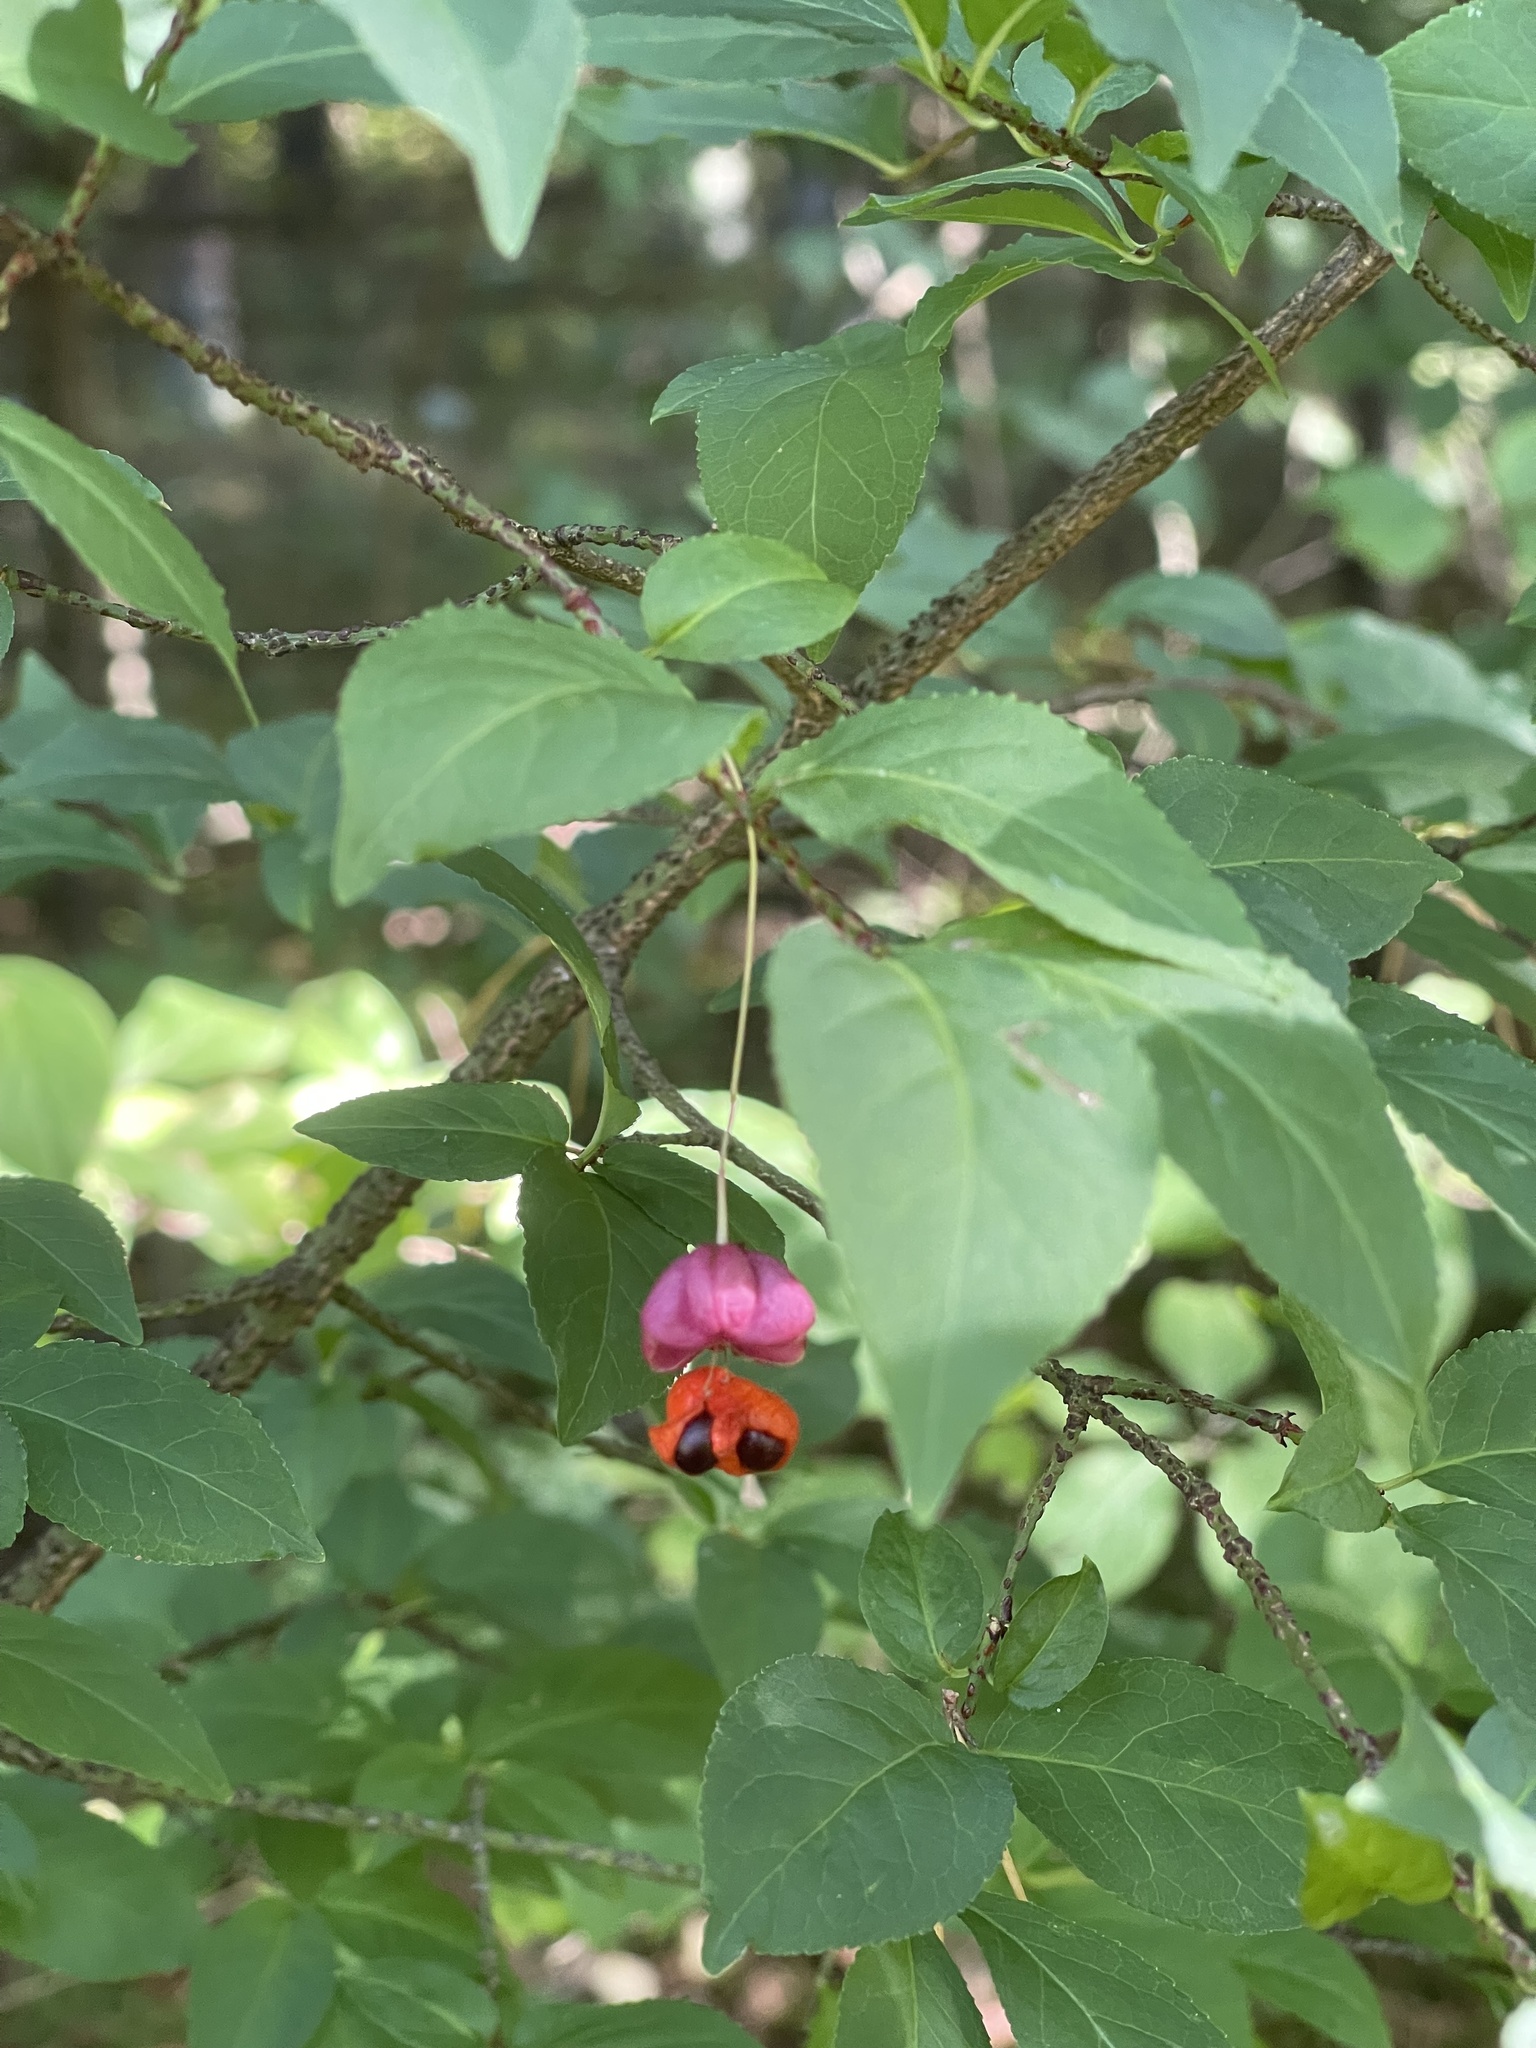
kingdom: Plantae
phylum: Tracheophyta
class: Magnoliopsida
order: Celastrales
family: Celastraceae
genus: Euonymus
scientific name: Euonymus verrucosus
